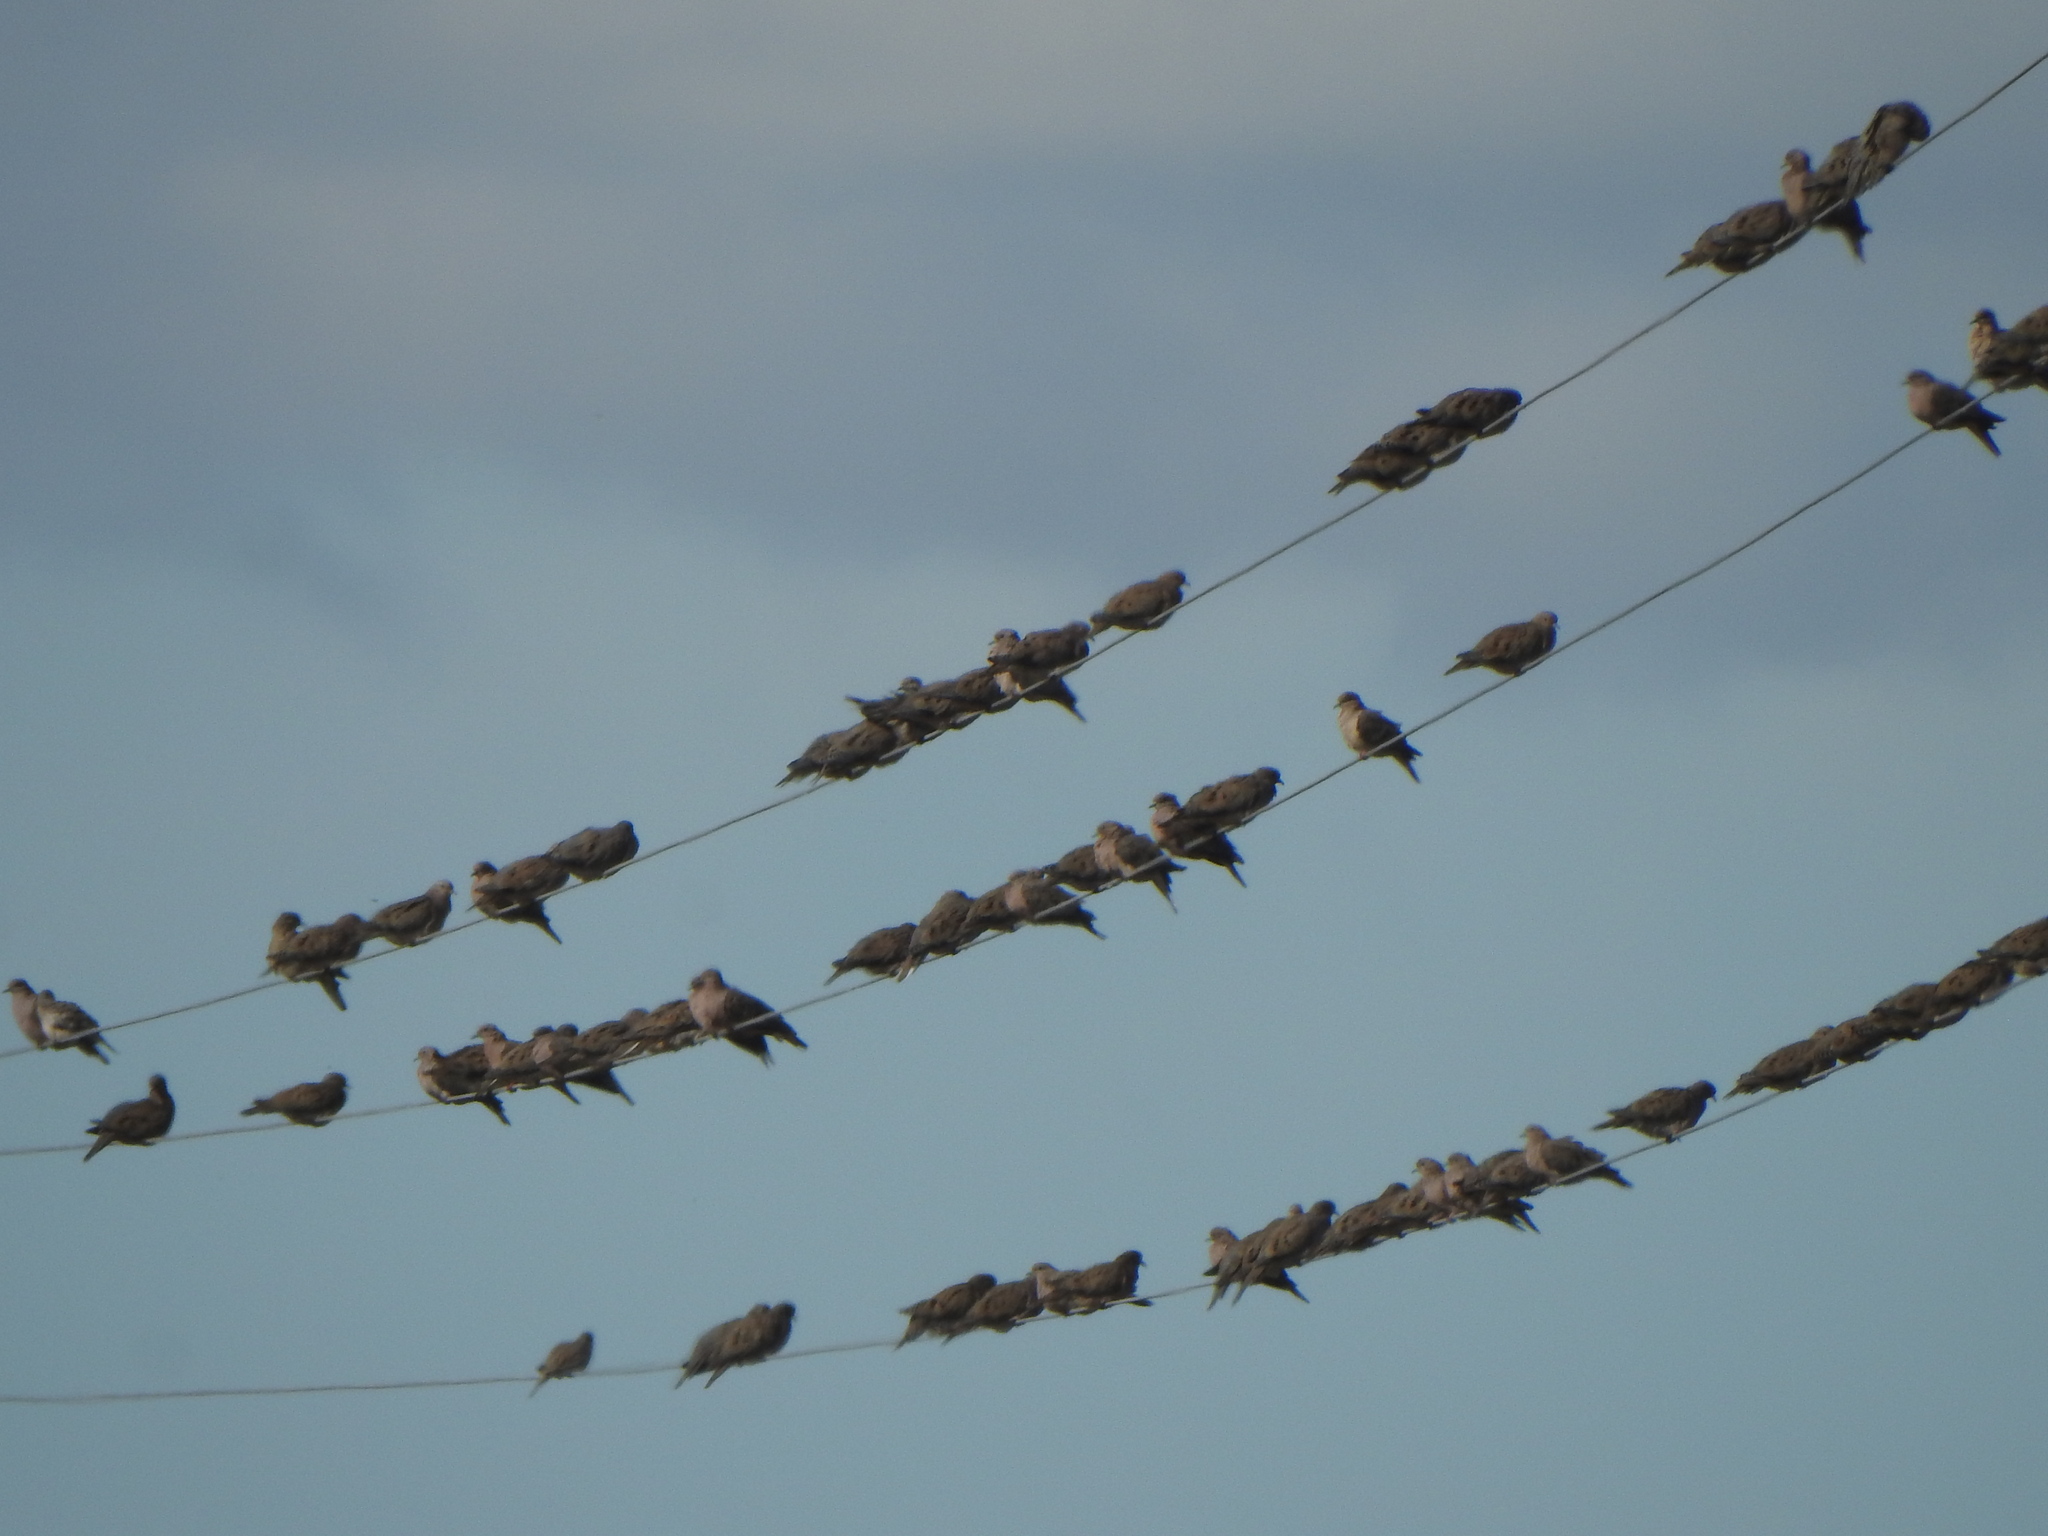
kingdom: Animalia
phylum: Chordata
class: Aves
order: Columbiformes
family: Columbidae
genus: Zenaida
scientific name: Zenaida auriculata
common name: Eared dove
